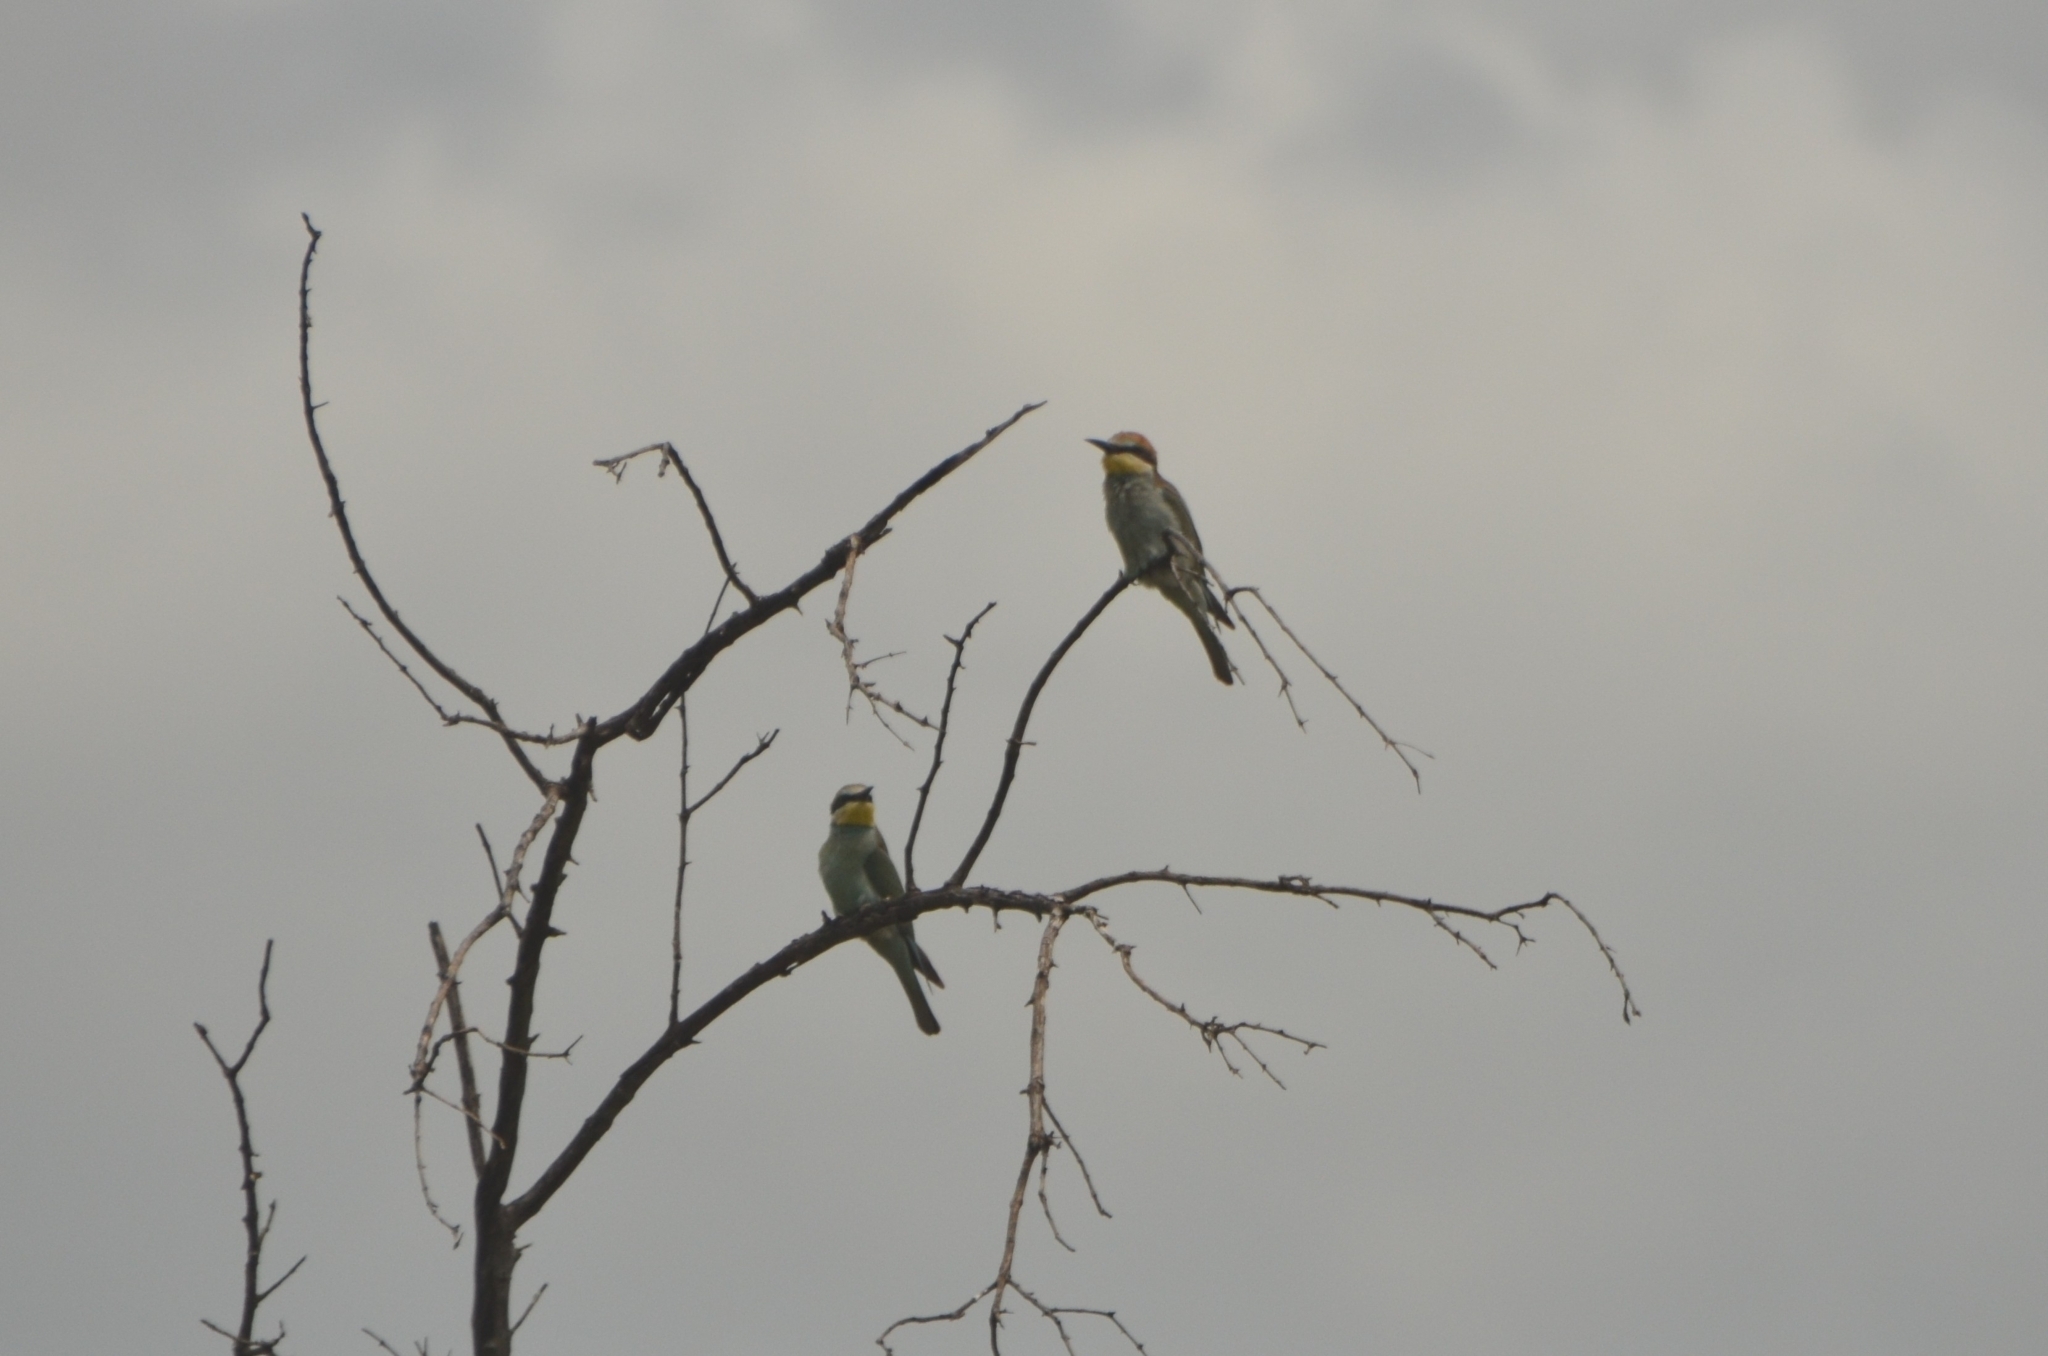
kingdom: Animalia
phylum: Chordata
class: Aves
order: Coraciiformes
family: Meropidae
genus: Merops
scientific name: Merops apiaster
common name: European bee-eater
